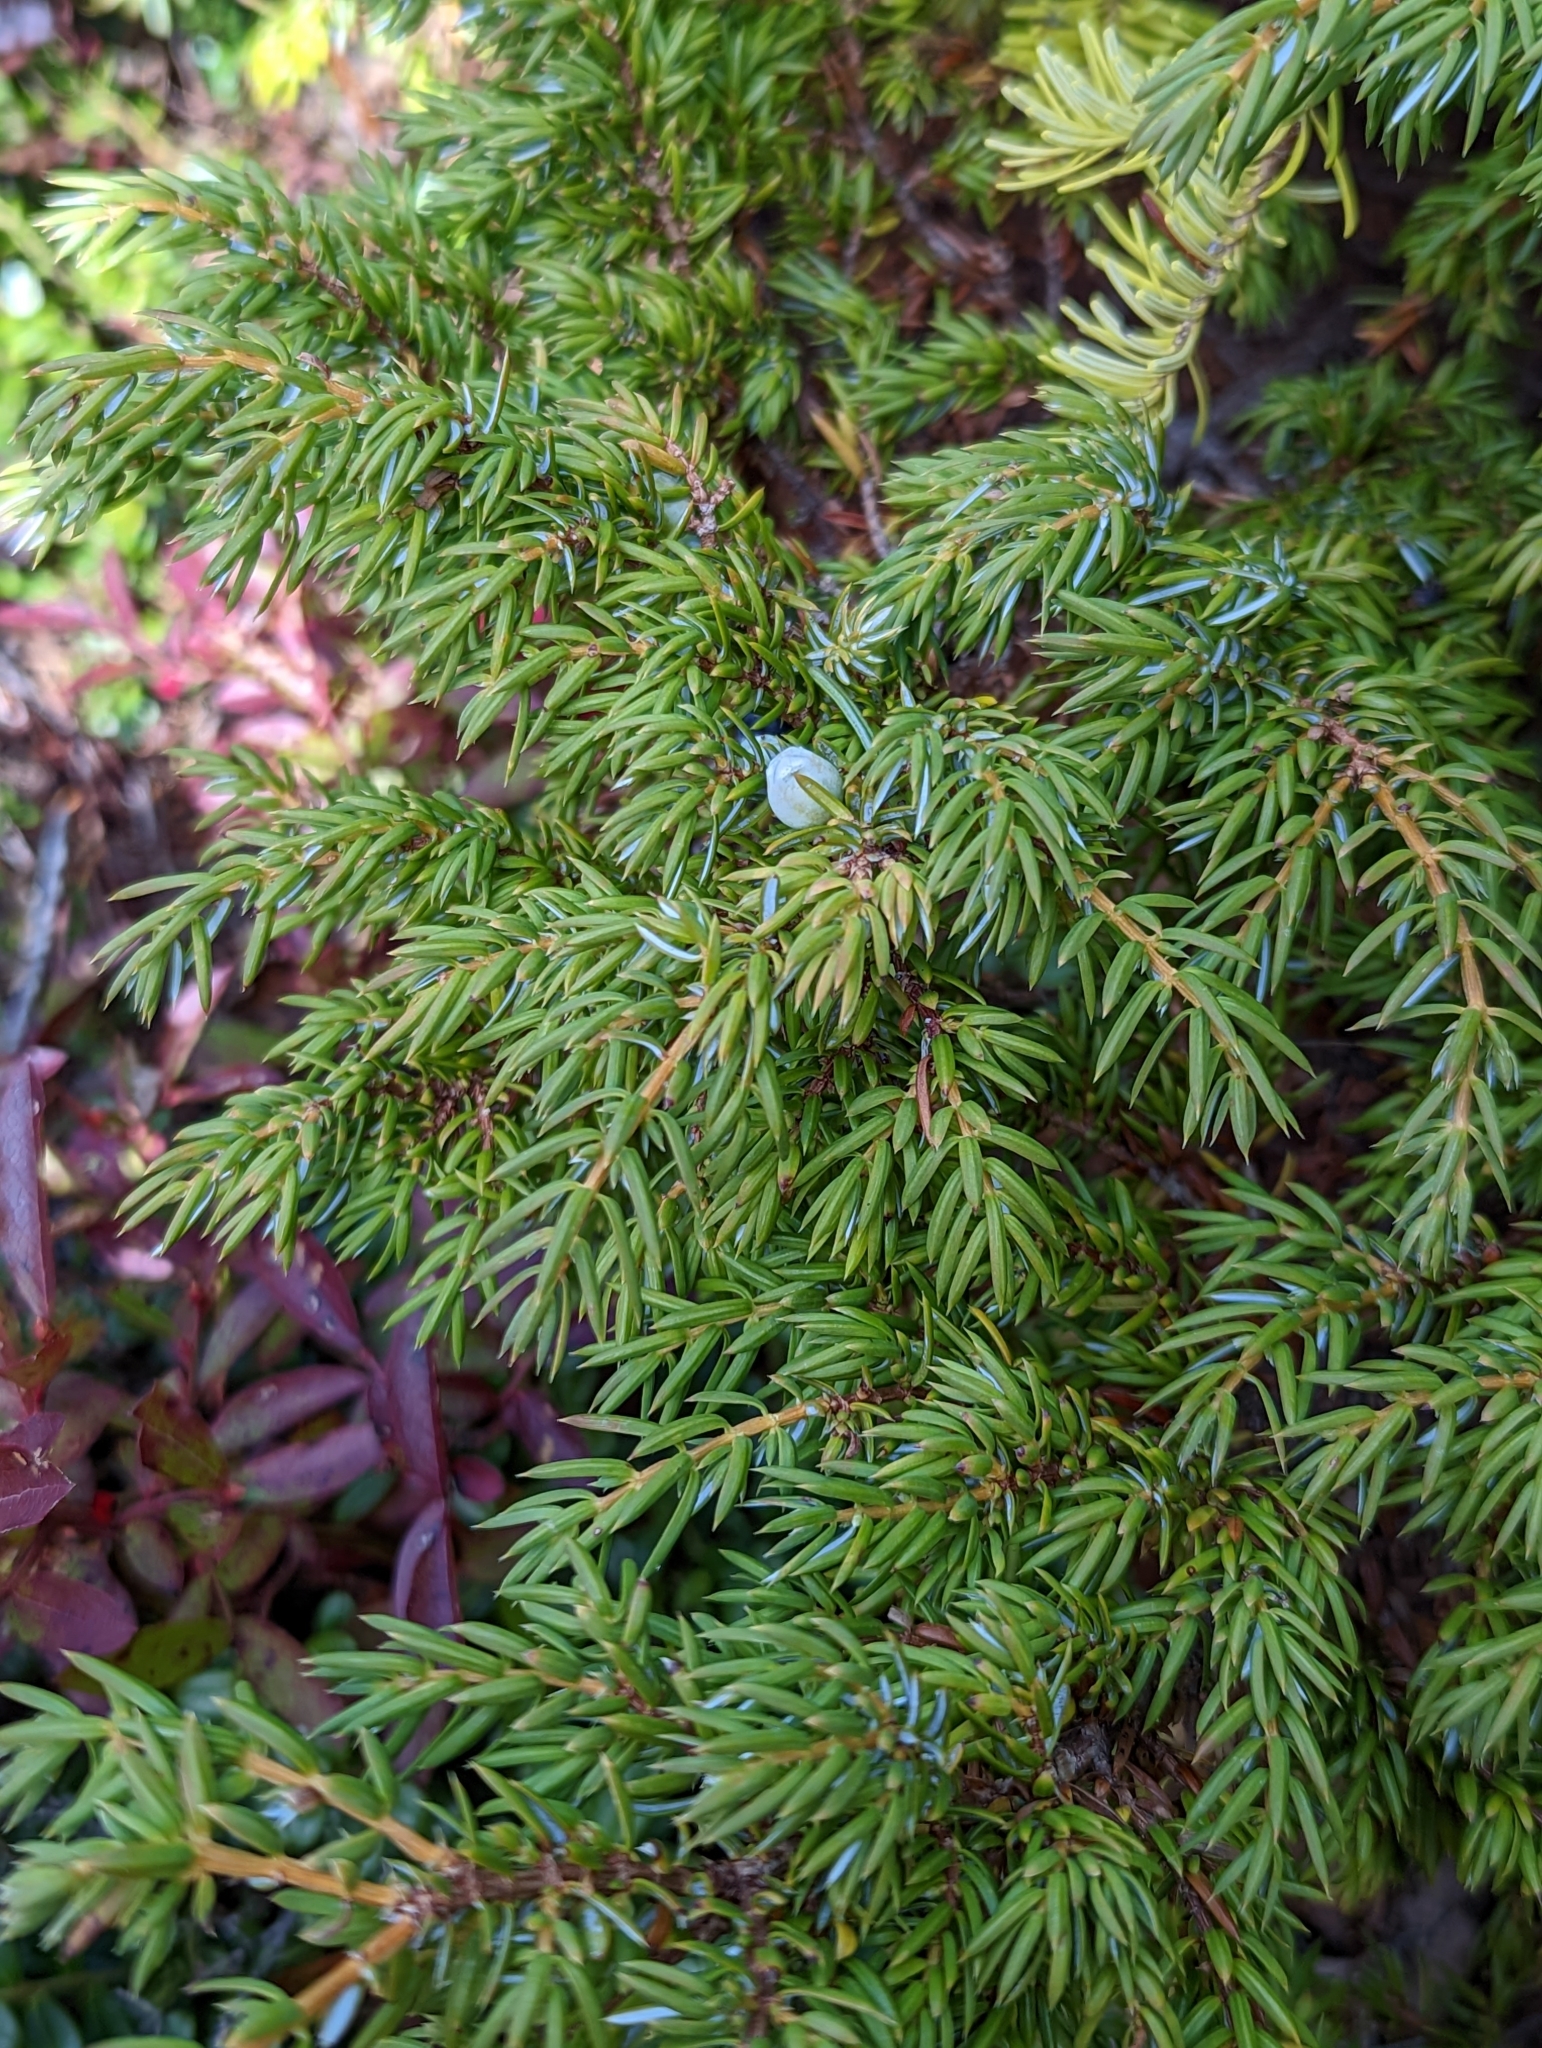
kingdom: Plantae
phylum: Tracheophyta
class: Pinopsida
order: Pinales
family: Cupressaceae
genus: Juniperus
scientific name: Juniperus communis
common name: Common juniper
